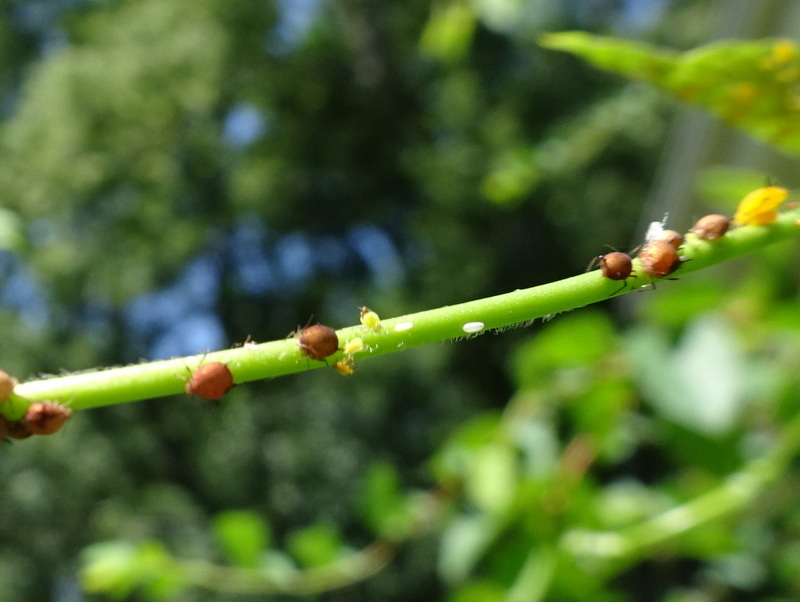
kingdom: Animalia
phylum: Arthropoda
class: Insecta
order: Hemiptera
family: Aphididae
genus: Aphis
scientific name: Aphis nerii
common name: Oleander aphid
